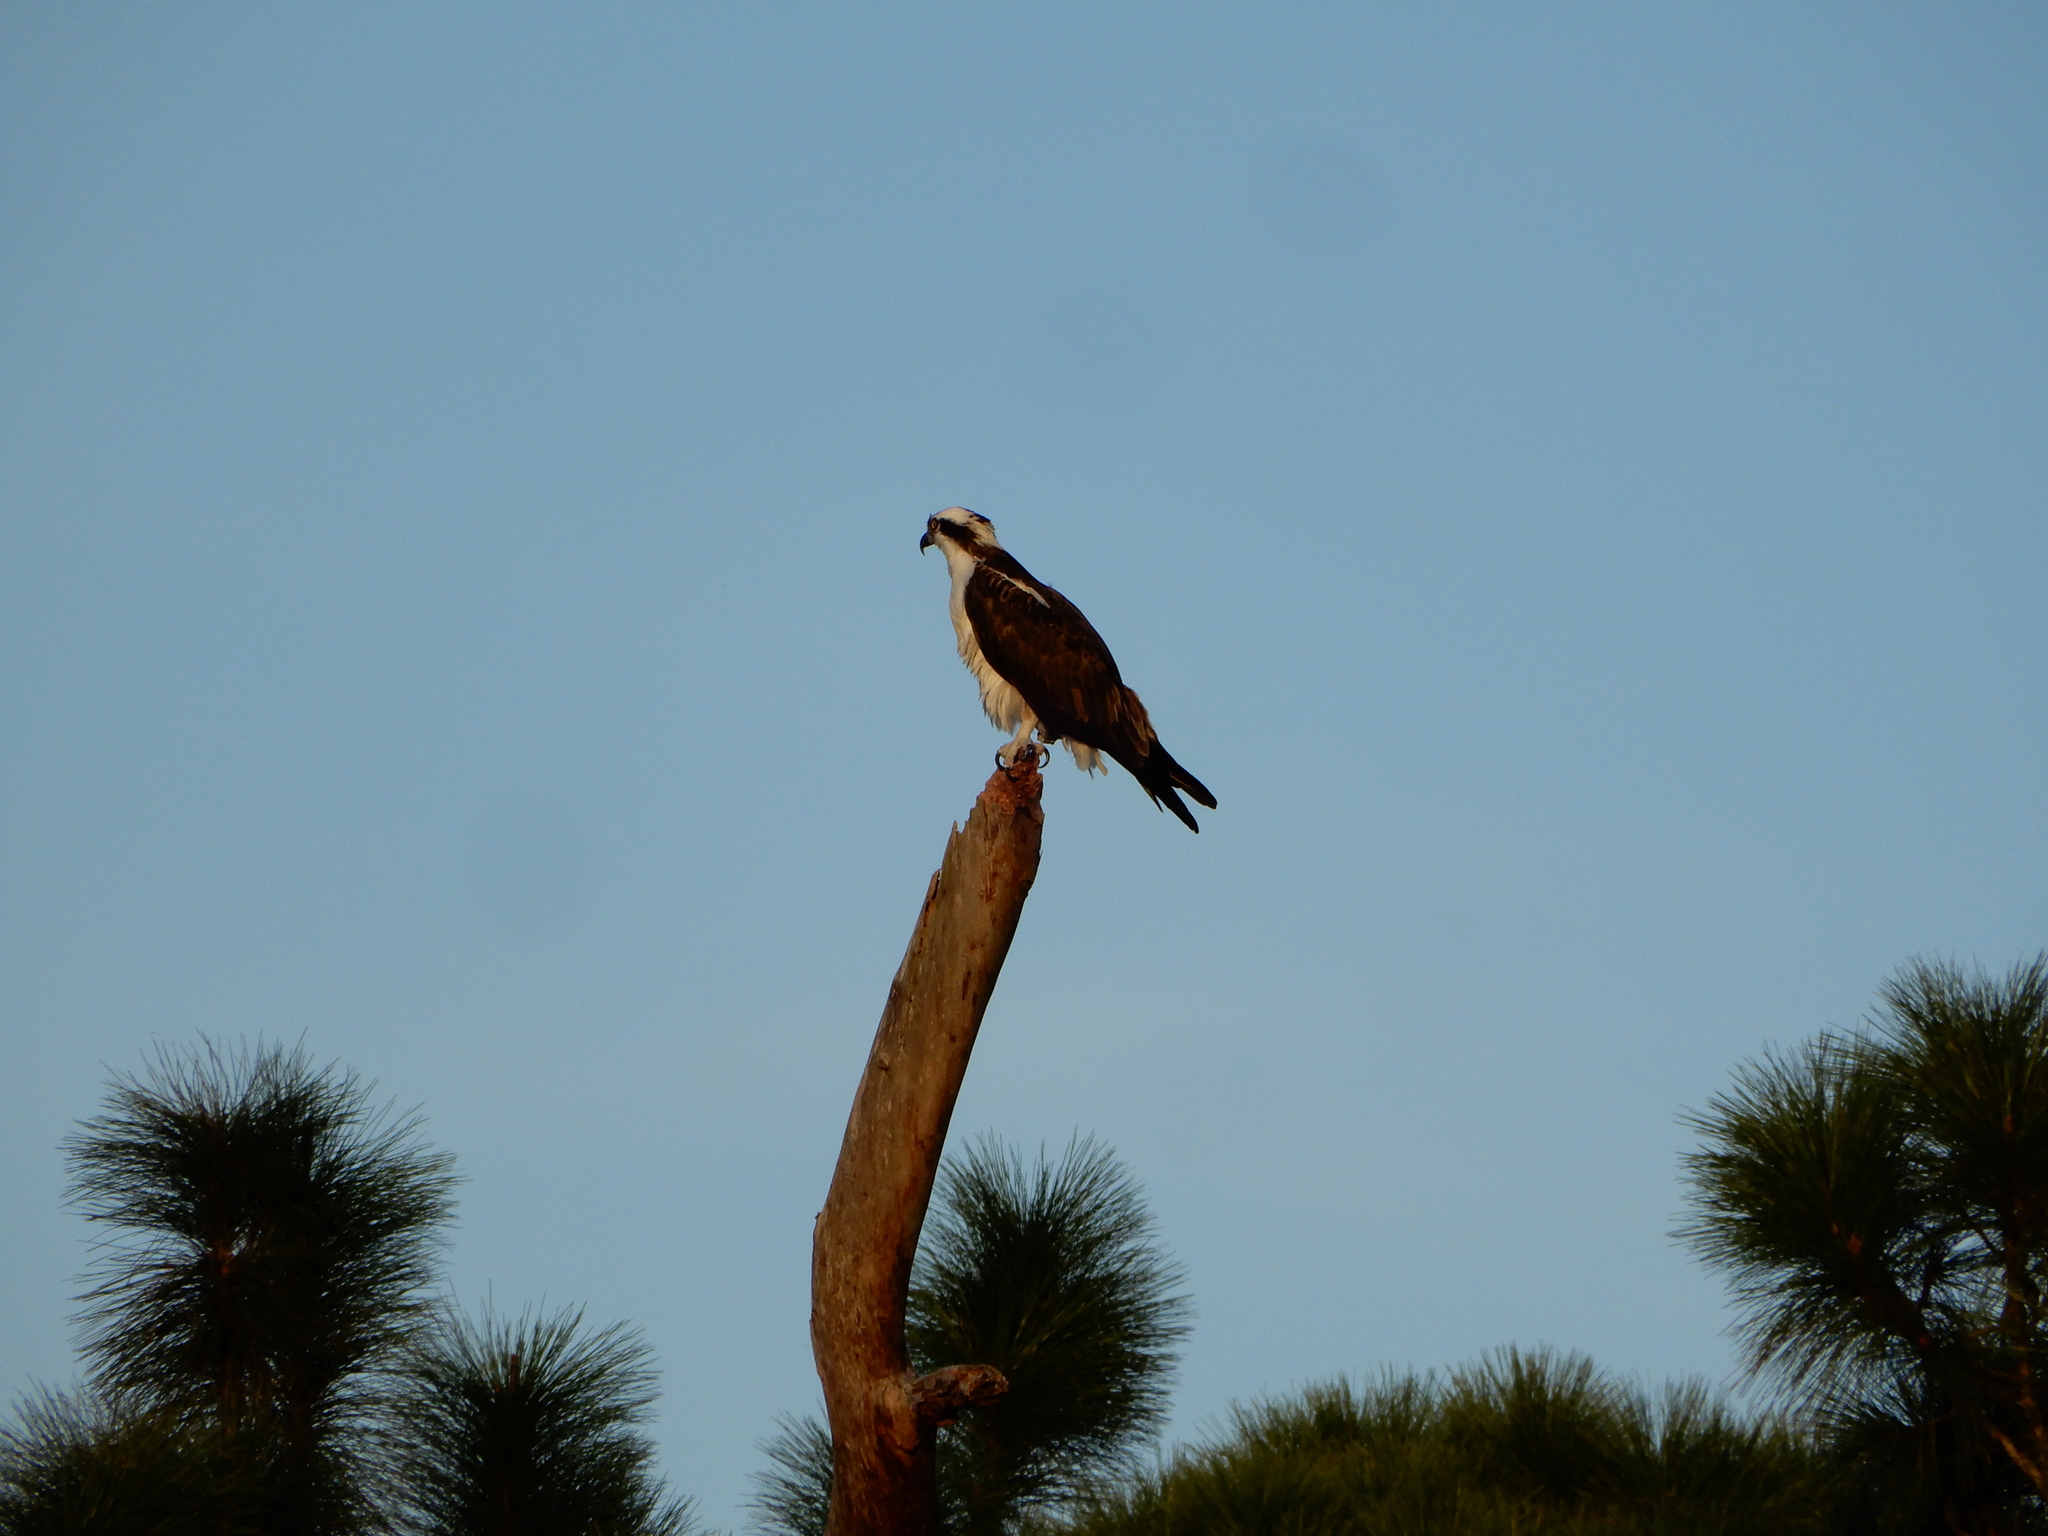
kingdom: Animalia
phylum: Chordata
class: Aves
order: Accipitriformes
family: Pandionidae
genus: Pandion
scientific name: Pandion haliaetus
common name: Osprey
